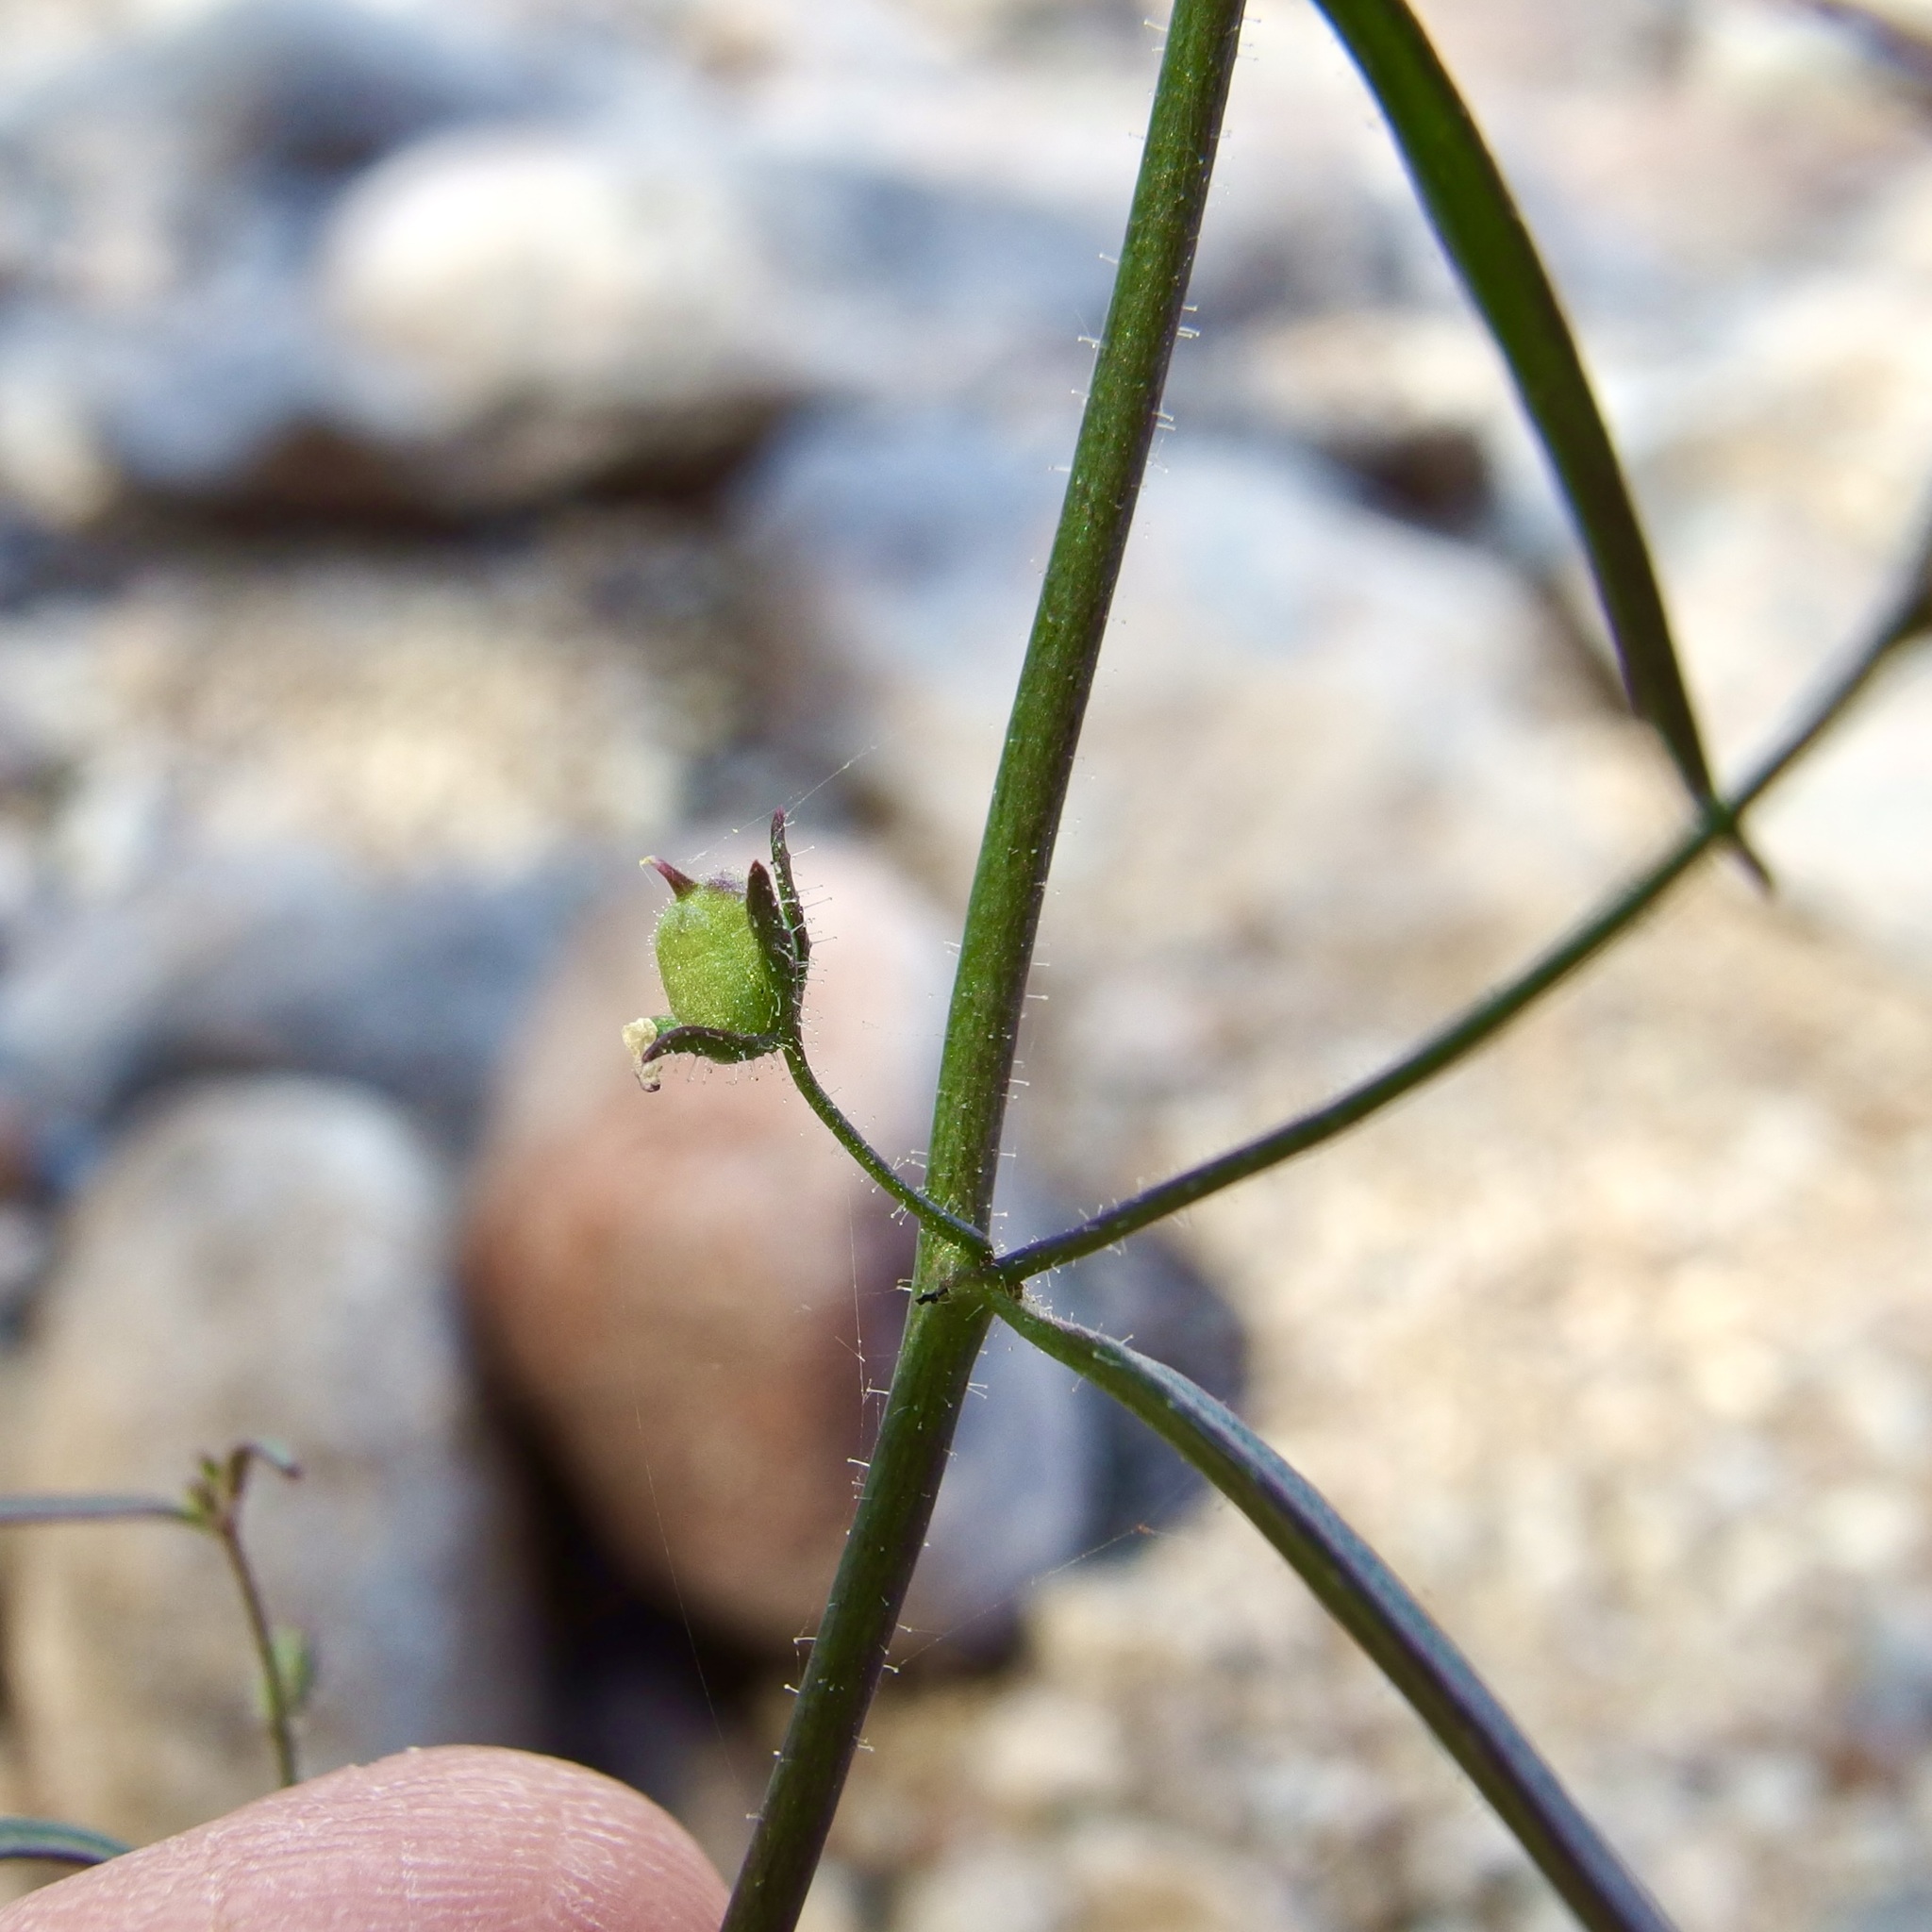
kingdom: Plantae
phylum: Tracheophyta
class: Magnoliopsida
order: Lamiales
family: Plantaginaceae
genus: Sairocarpus
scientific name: Sairocarpus costatus
